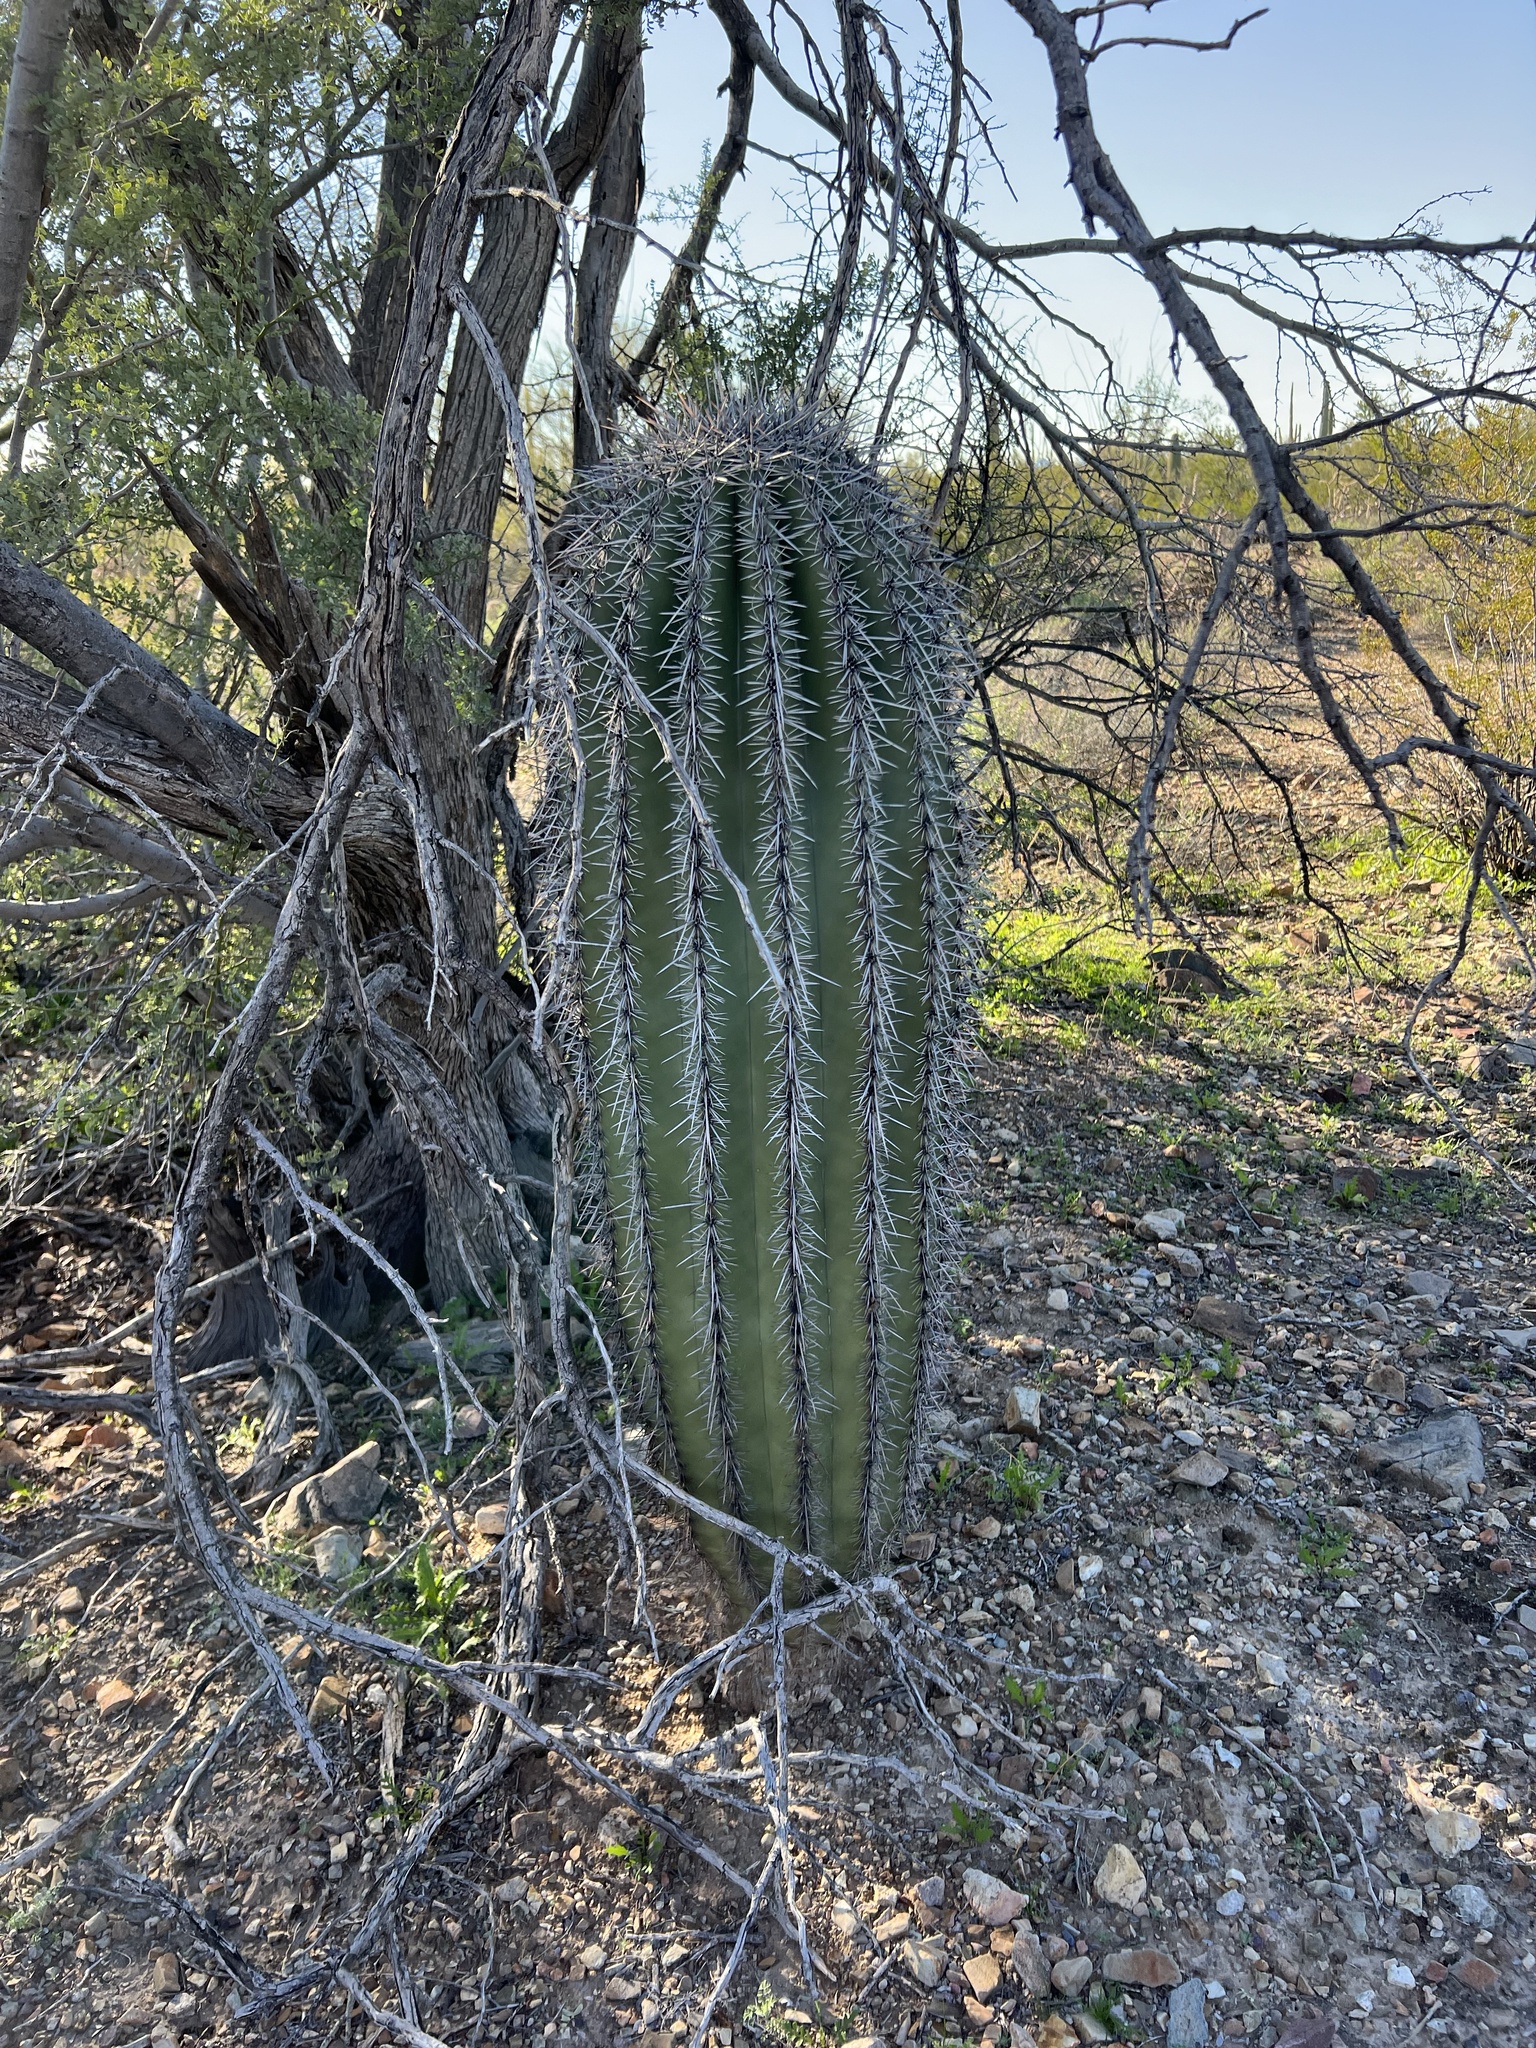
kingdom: Plantae
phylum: Tracheophyta
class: Magnoliopsida
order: Caryophyllales
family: Cactaceae
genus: Carnegiea
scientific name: Carnegiea gigantea
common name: Saguaro
